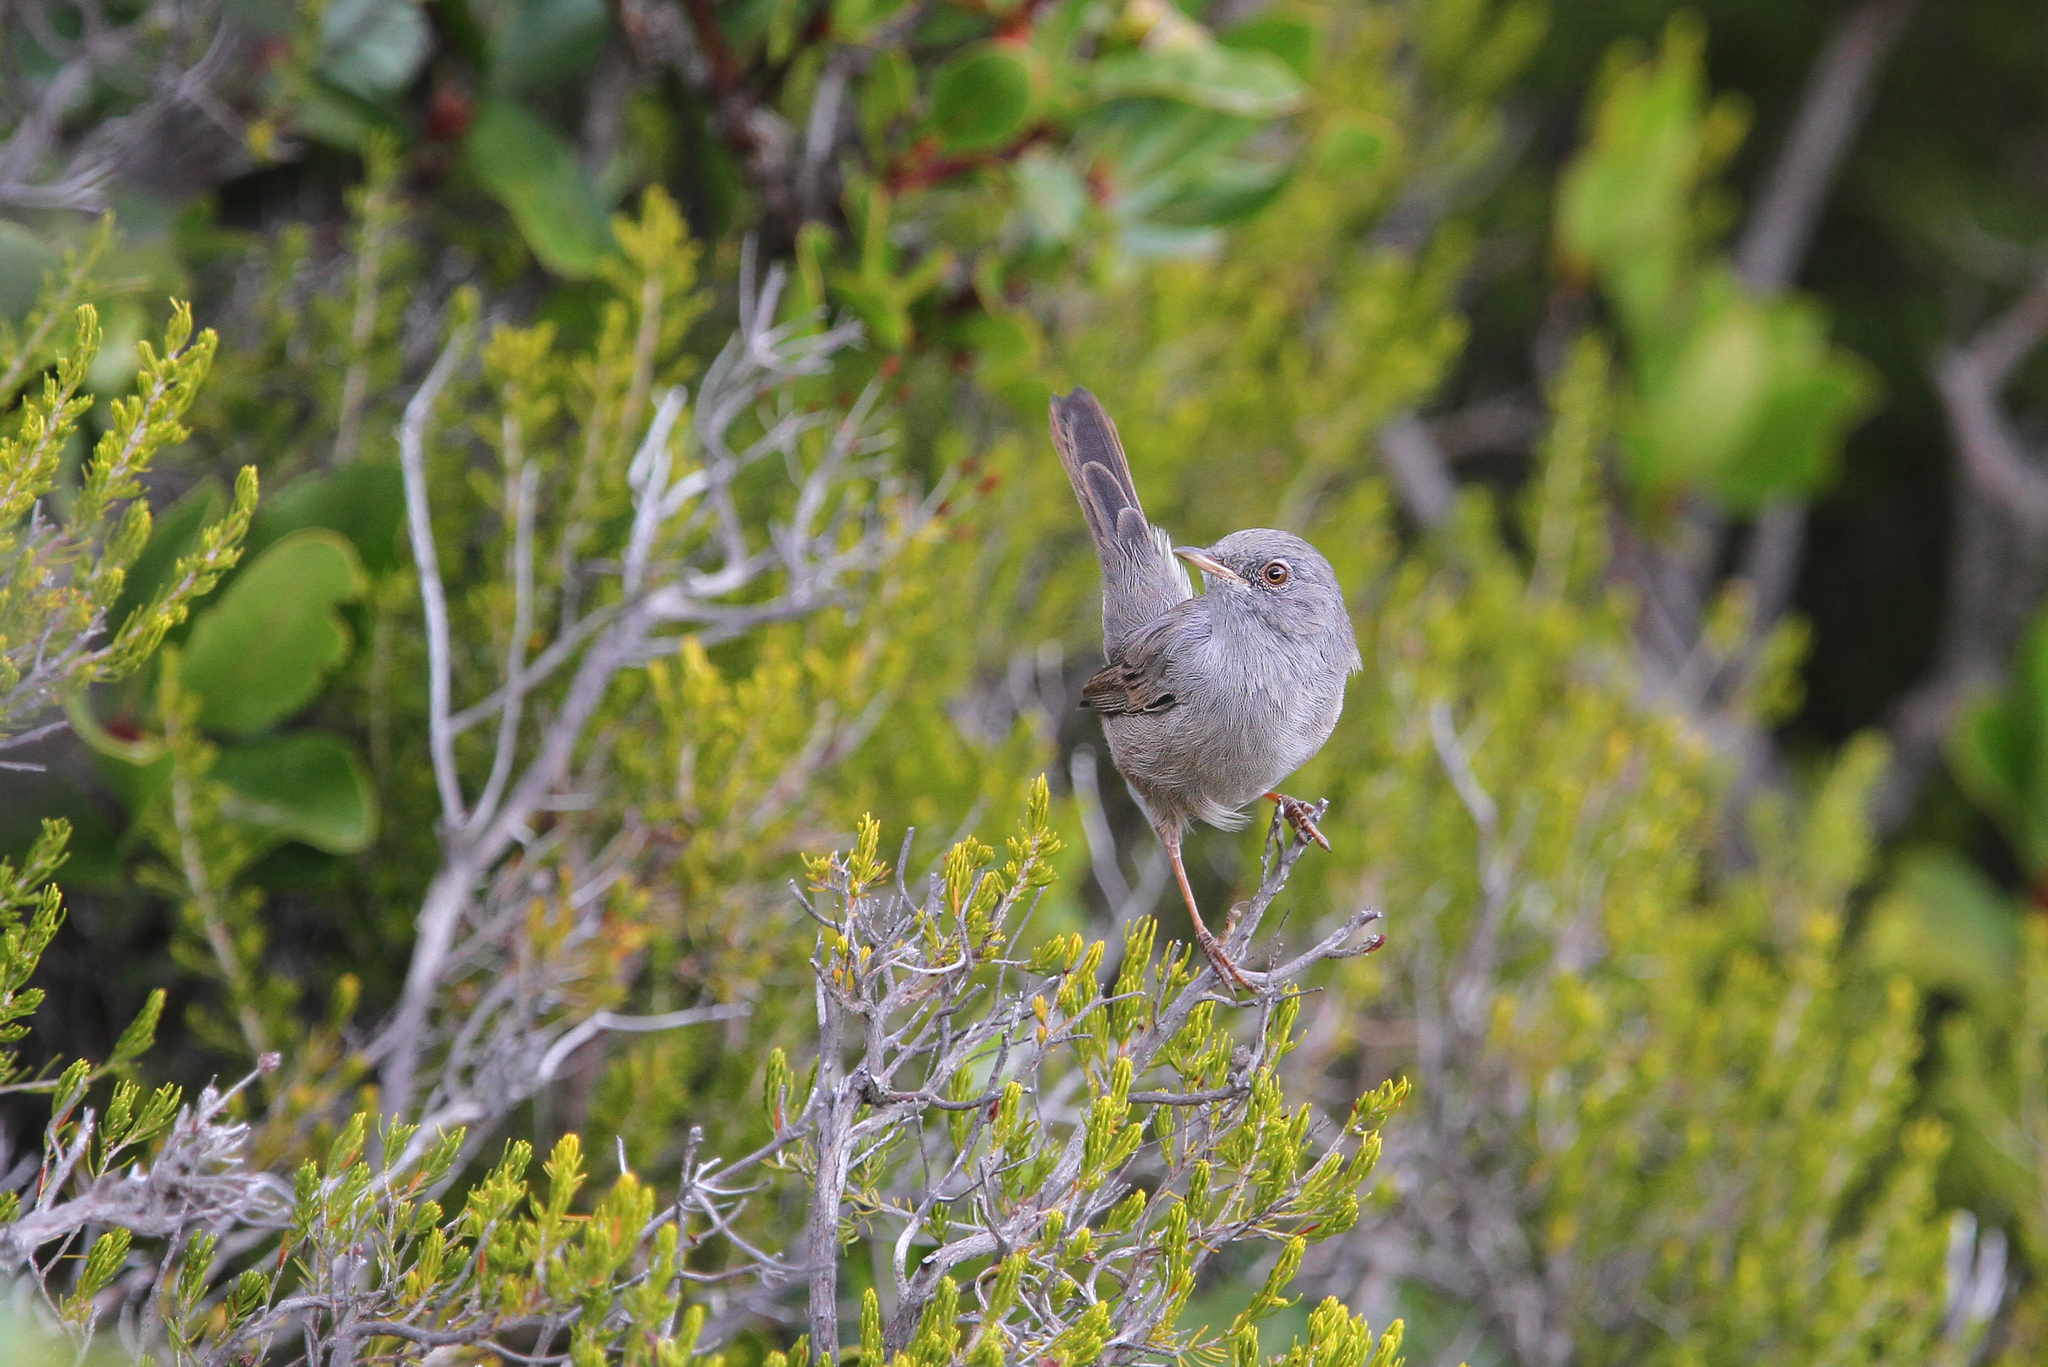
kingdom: Animalia
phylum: Chordata
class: Aves
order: Passeriformes
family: Sylviidae
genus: Sylvia
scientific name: Sylvia sarda
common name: Marmora's warbler
